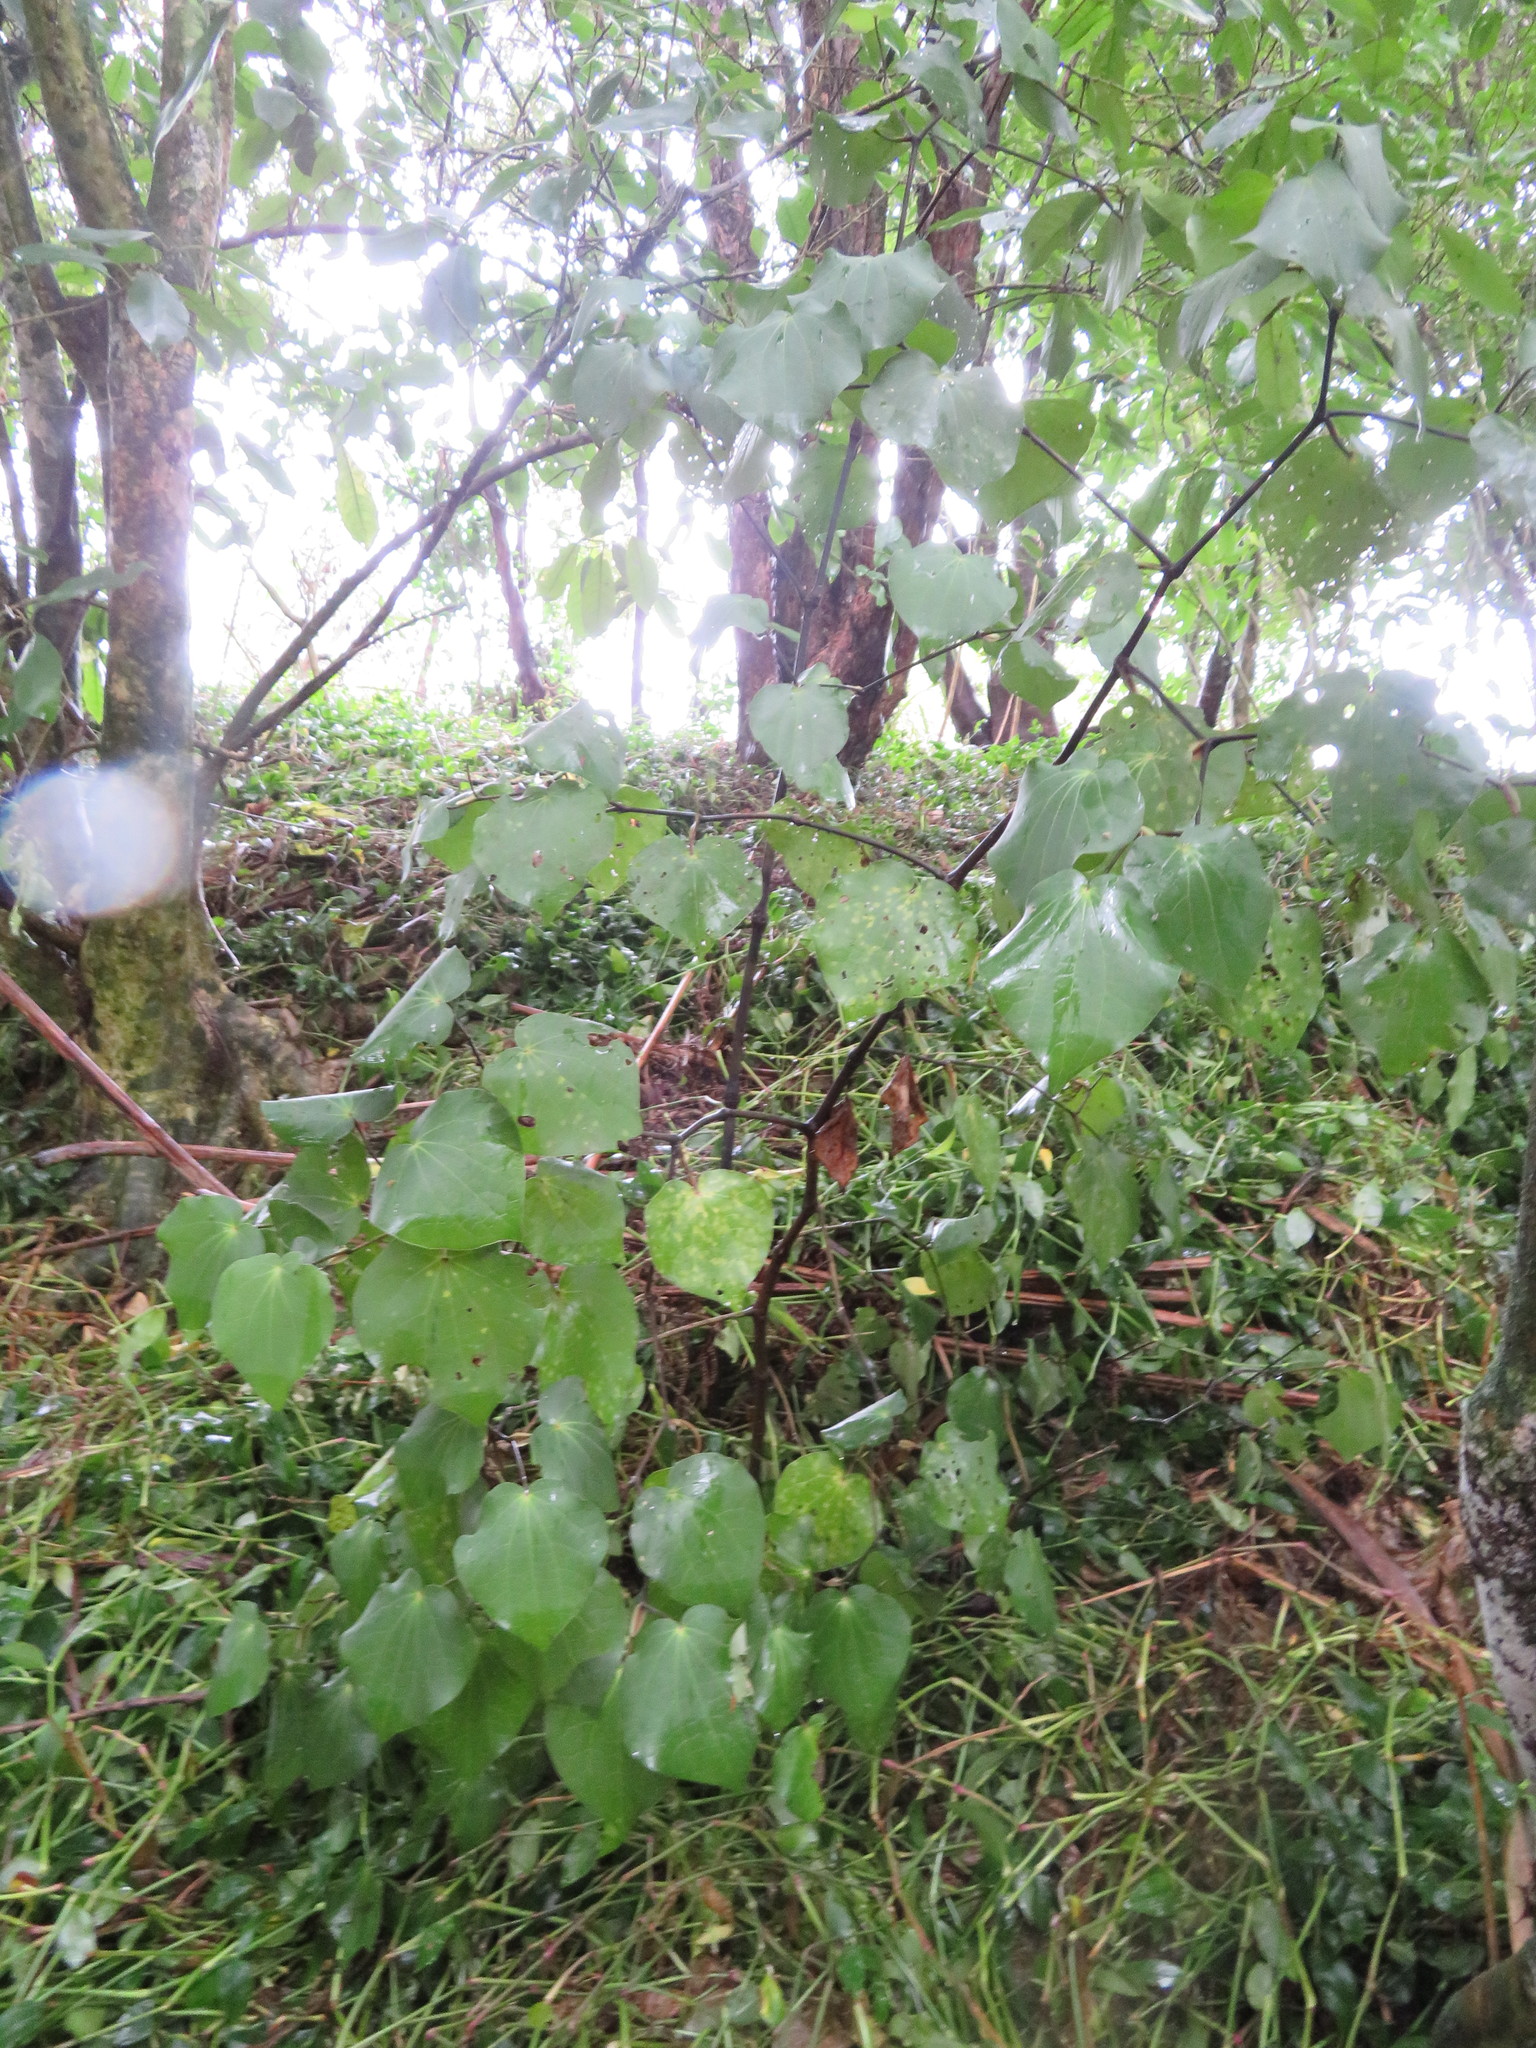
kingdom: Plantae
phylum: Tracheophyta
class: Magnoliopsida
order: Piperales
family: Piperaceae
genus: Macropiper
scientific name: Macropiper excelsum
